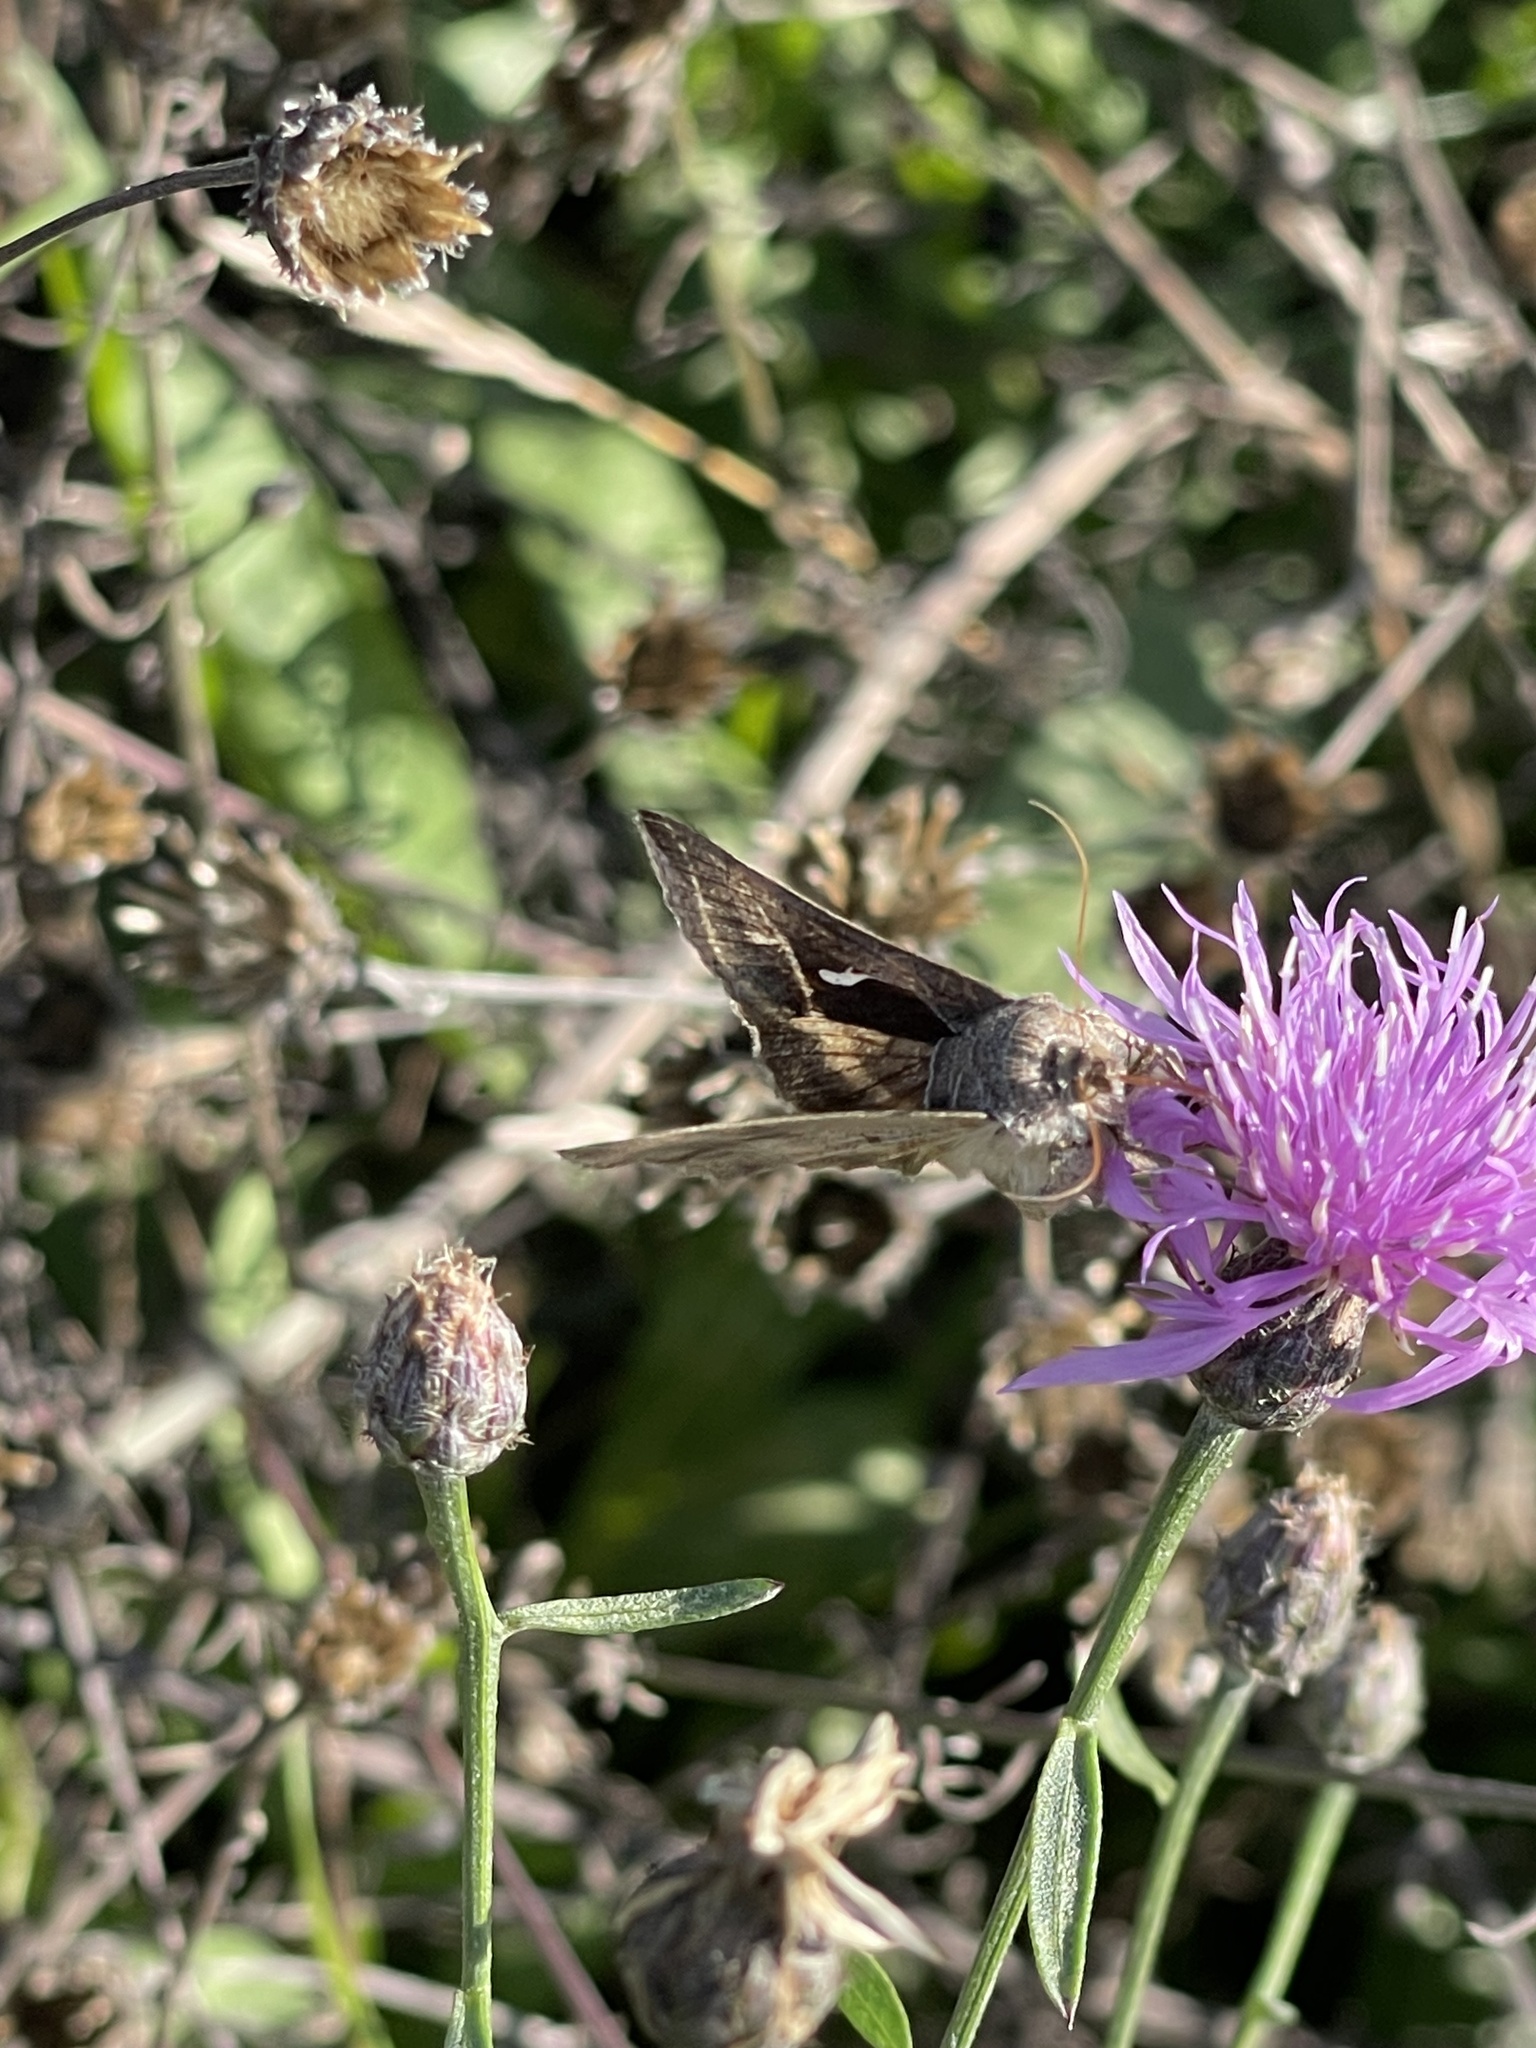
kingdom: Animalia
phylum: Arthropoda
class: Insecta
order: Lepidoptera
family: Noctuidae
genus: Anagrapha
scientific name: Anagrapha falcifera
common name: Celery looper
